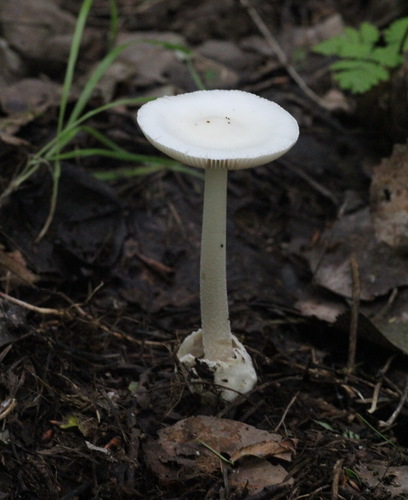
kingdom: Fungi
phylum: Basidiomycota
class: Agaricomycetes
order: Agaricales
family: Amanitaceae
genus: Amanita
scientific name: Amanita vaginata
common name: Grisette
